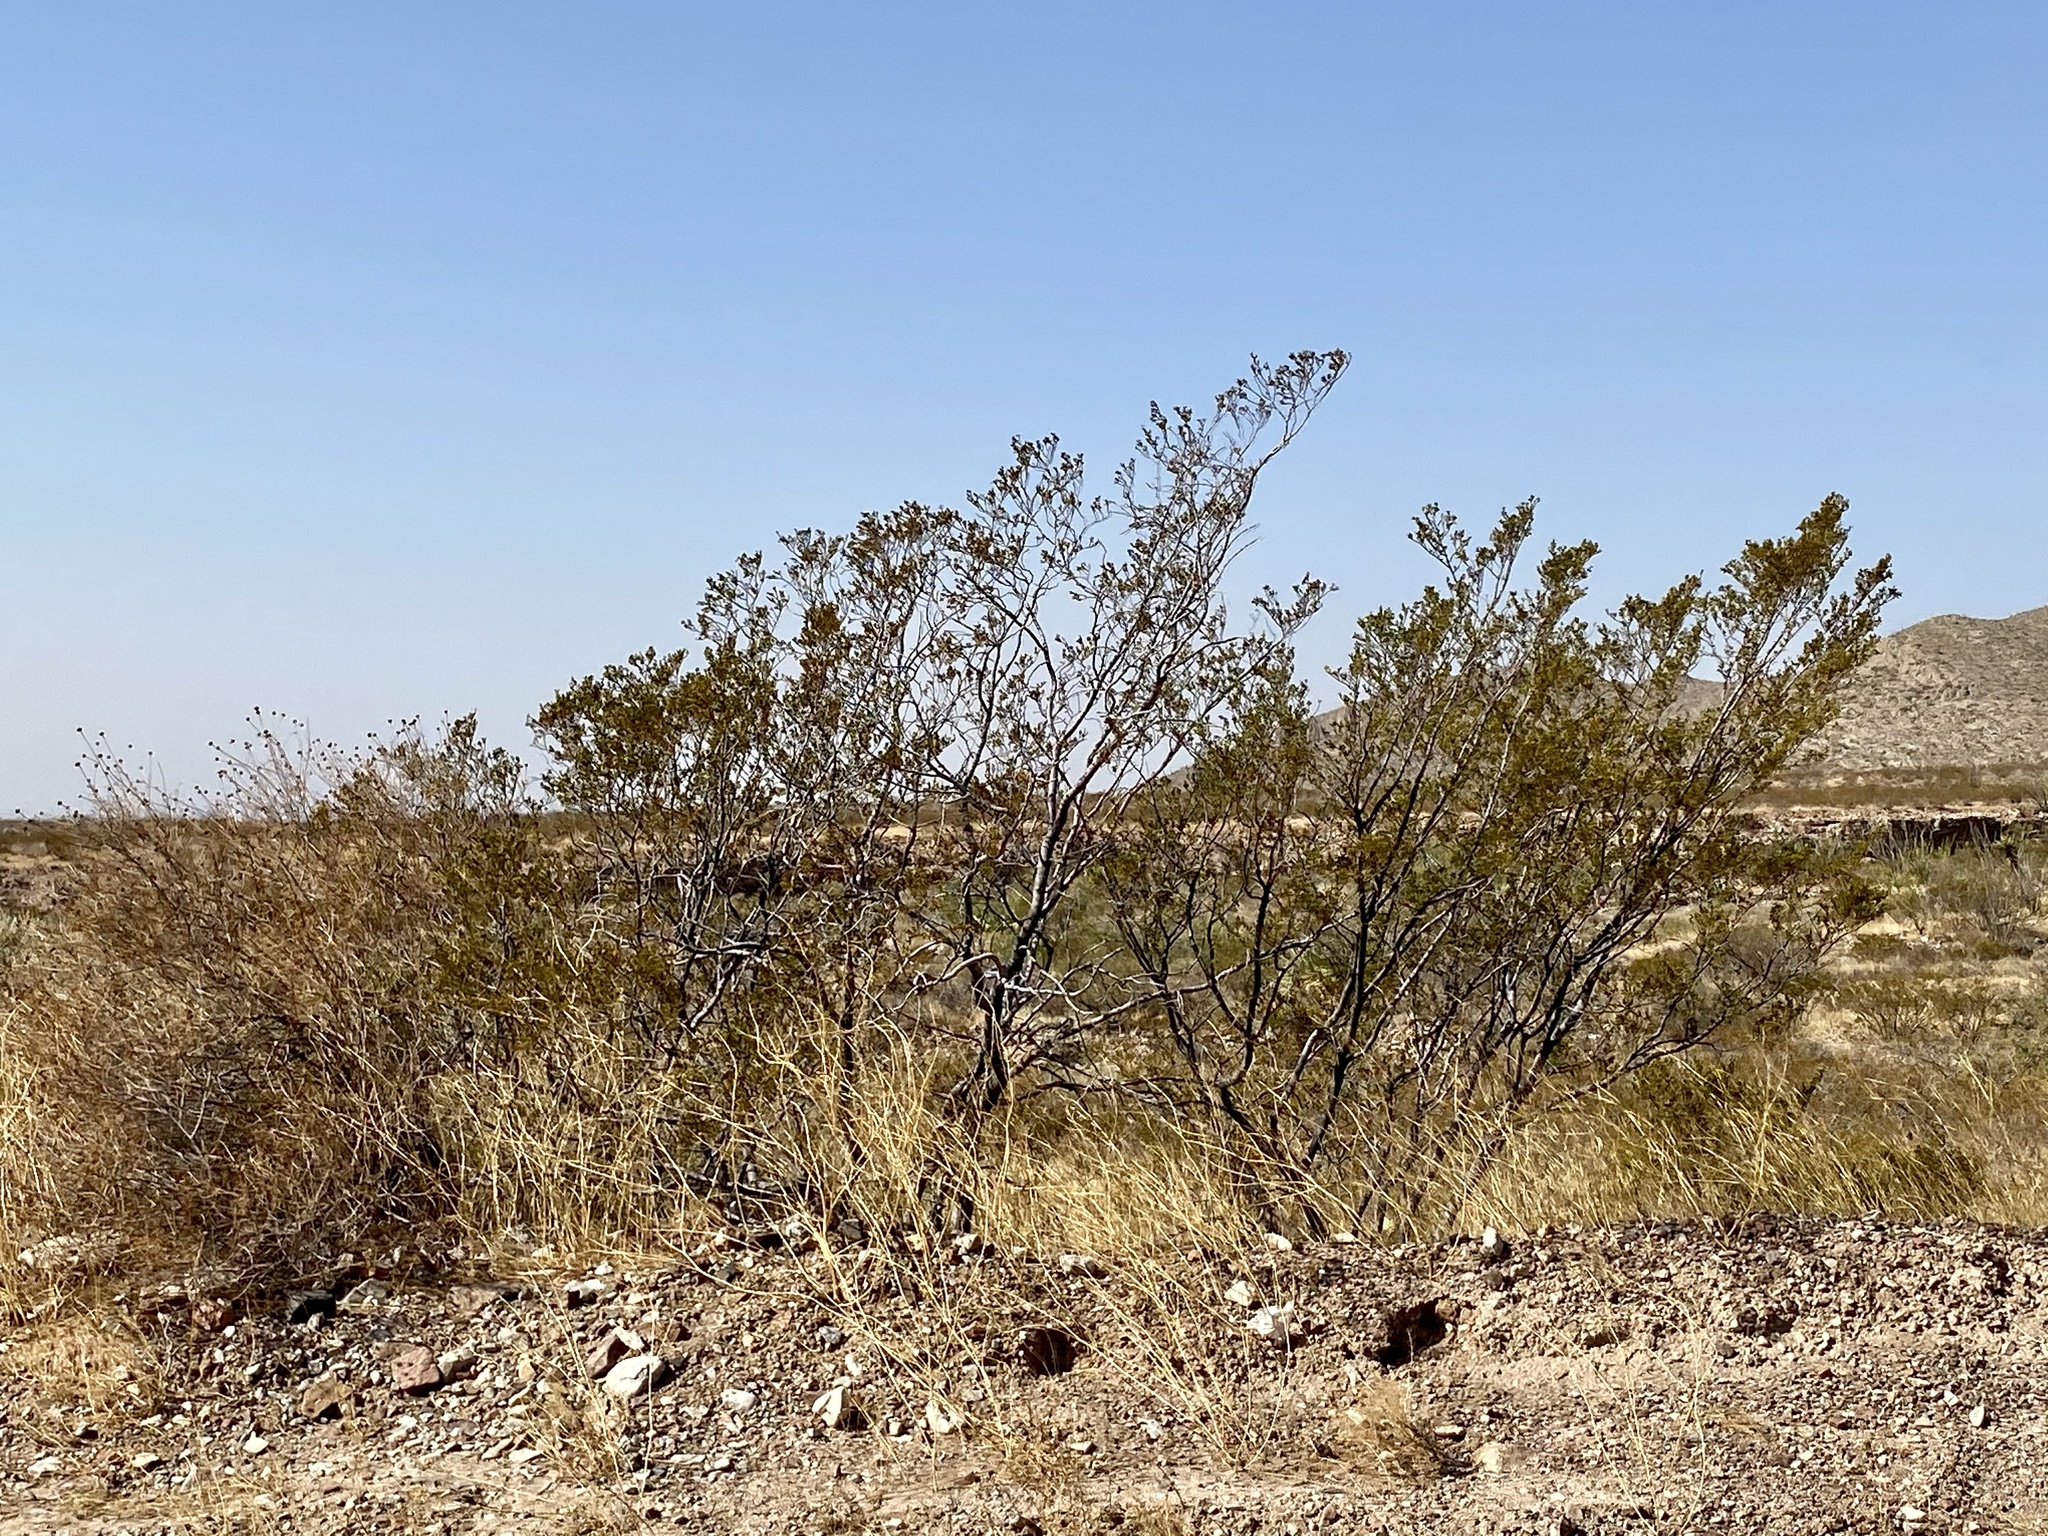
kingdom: Plantae
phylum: Tracheophyta
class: Magnoliopsida
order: Zygophyllales
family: Zygophyllaceae
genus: Larrea
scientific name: Larrea tridentata
